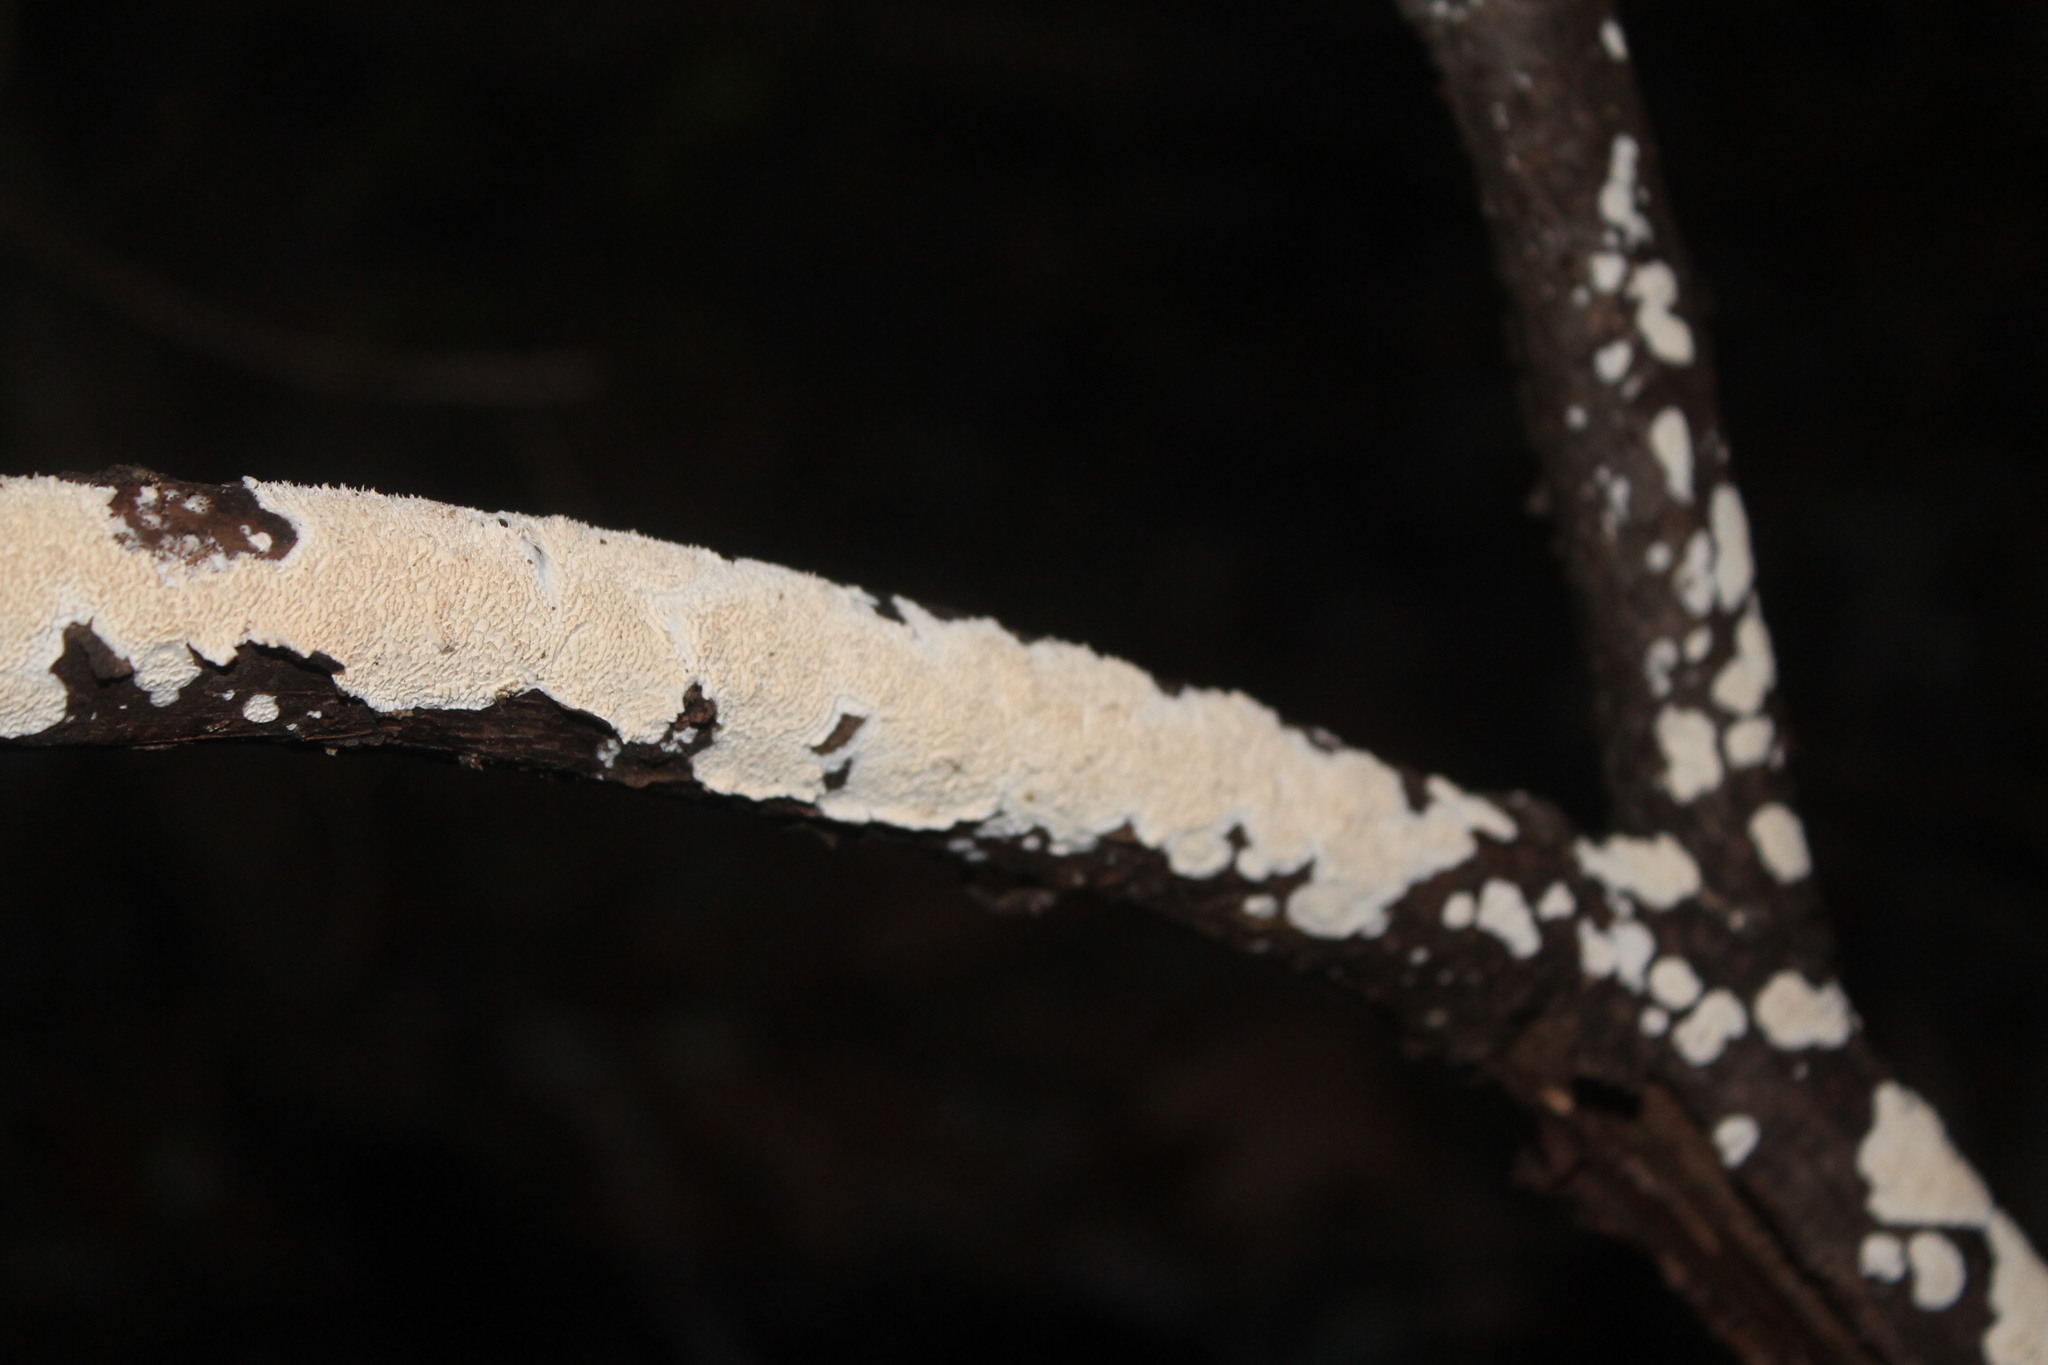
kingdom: Fungi
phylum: Basidiomycota
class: Agaricomycetes
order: Polyporales
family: Irpicaceae
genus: Irpex
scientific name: Irpex lacteus
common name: Milk-white toothed polypore
